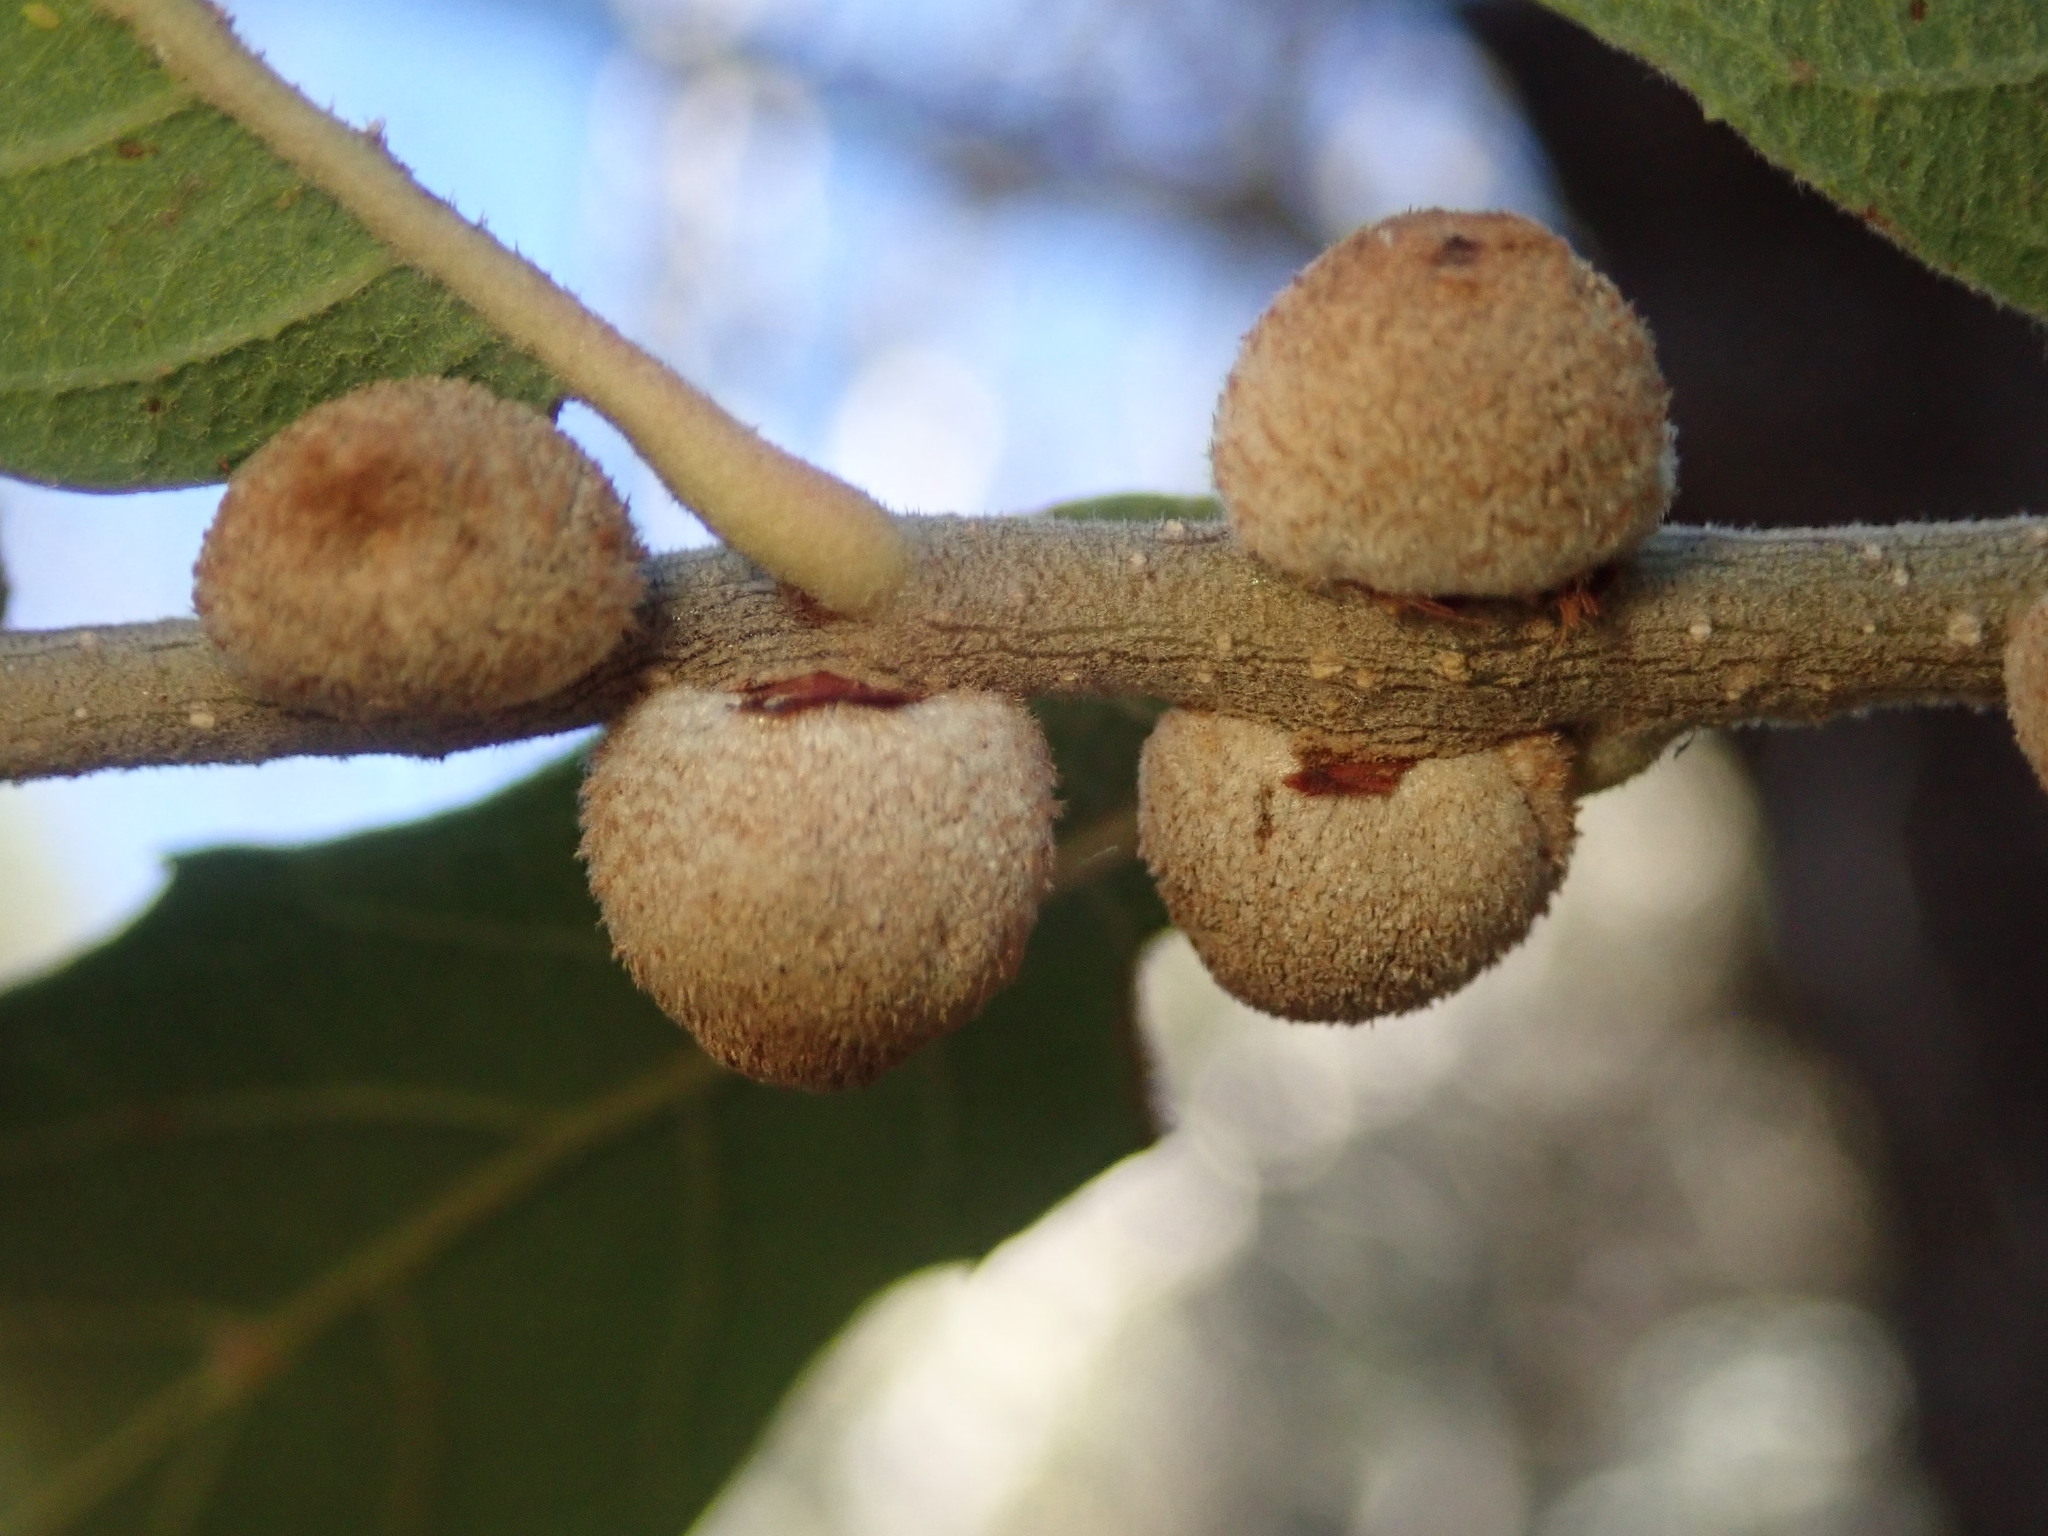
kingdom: Animalia
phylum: Arthropoda
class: Insecta
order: Hymenoptera
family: Cynipidae
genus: Disholcaspis
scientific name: Disholcaspis
